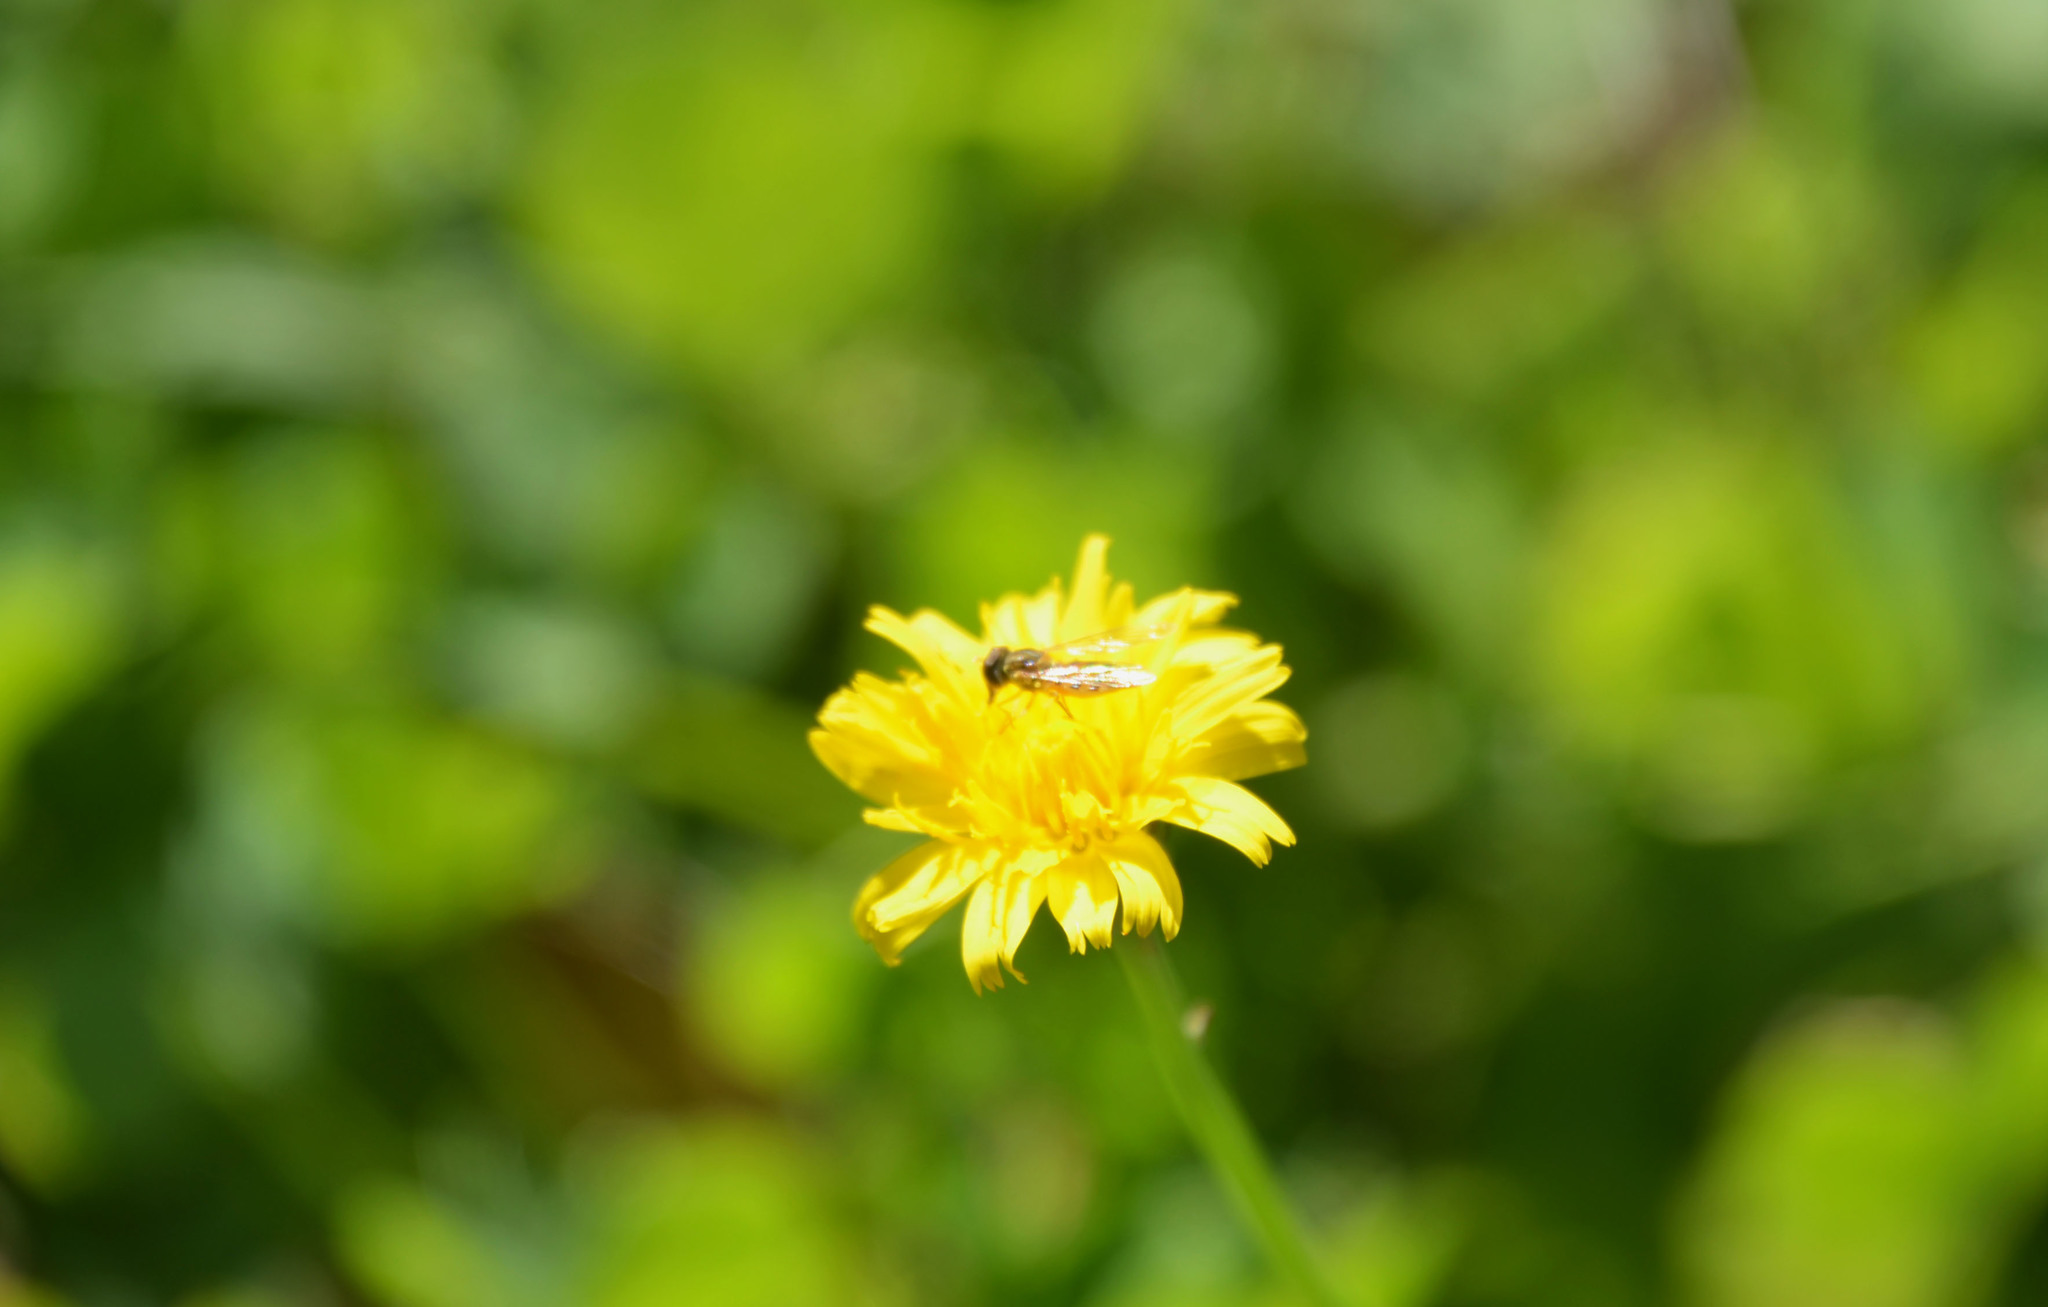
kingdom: Animalia
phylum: Arthropoda
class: Insecta
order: Diptera
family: Syrphidae
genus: Toxomerus
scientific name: Toxomerus
